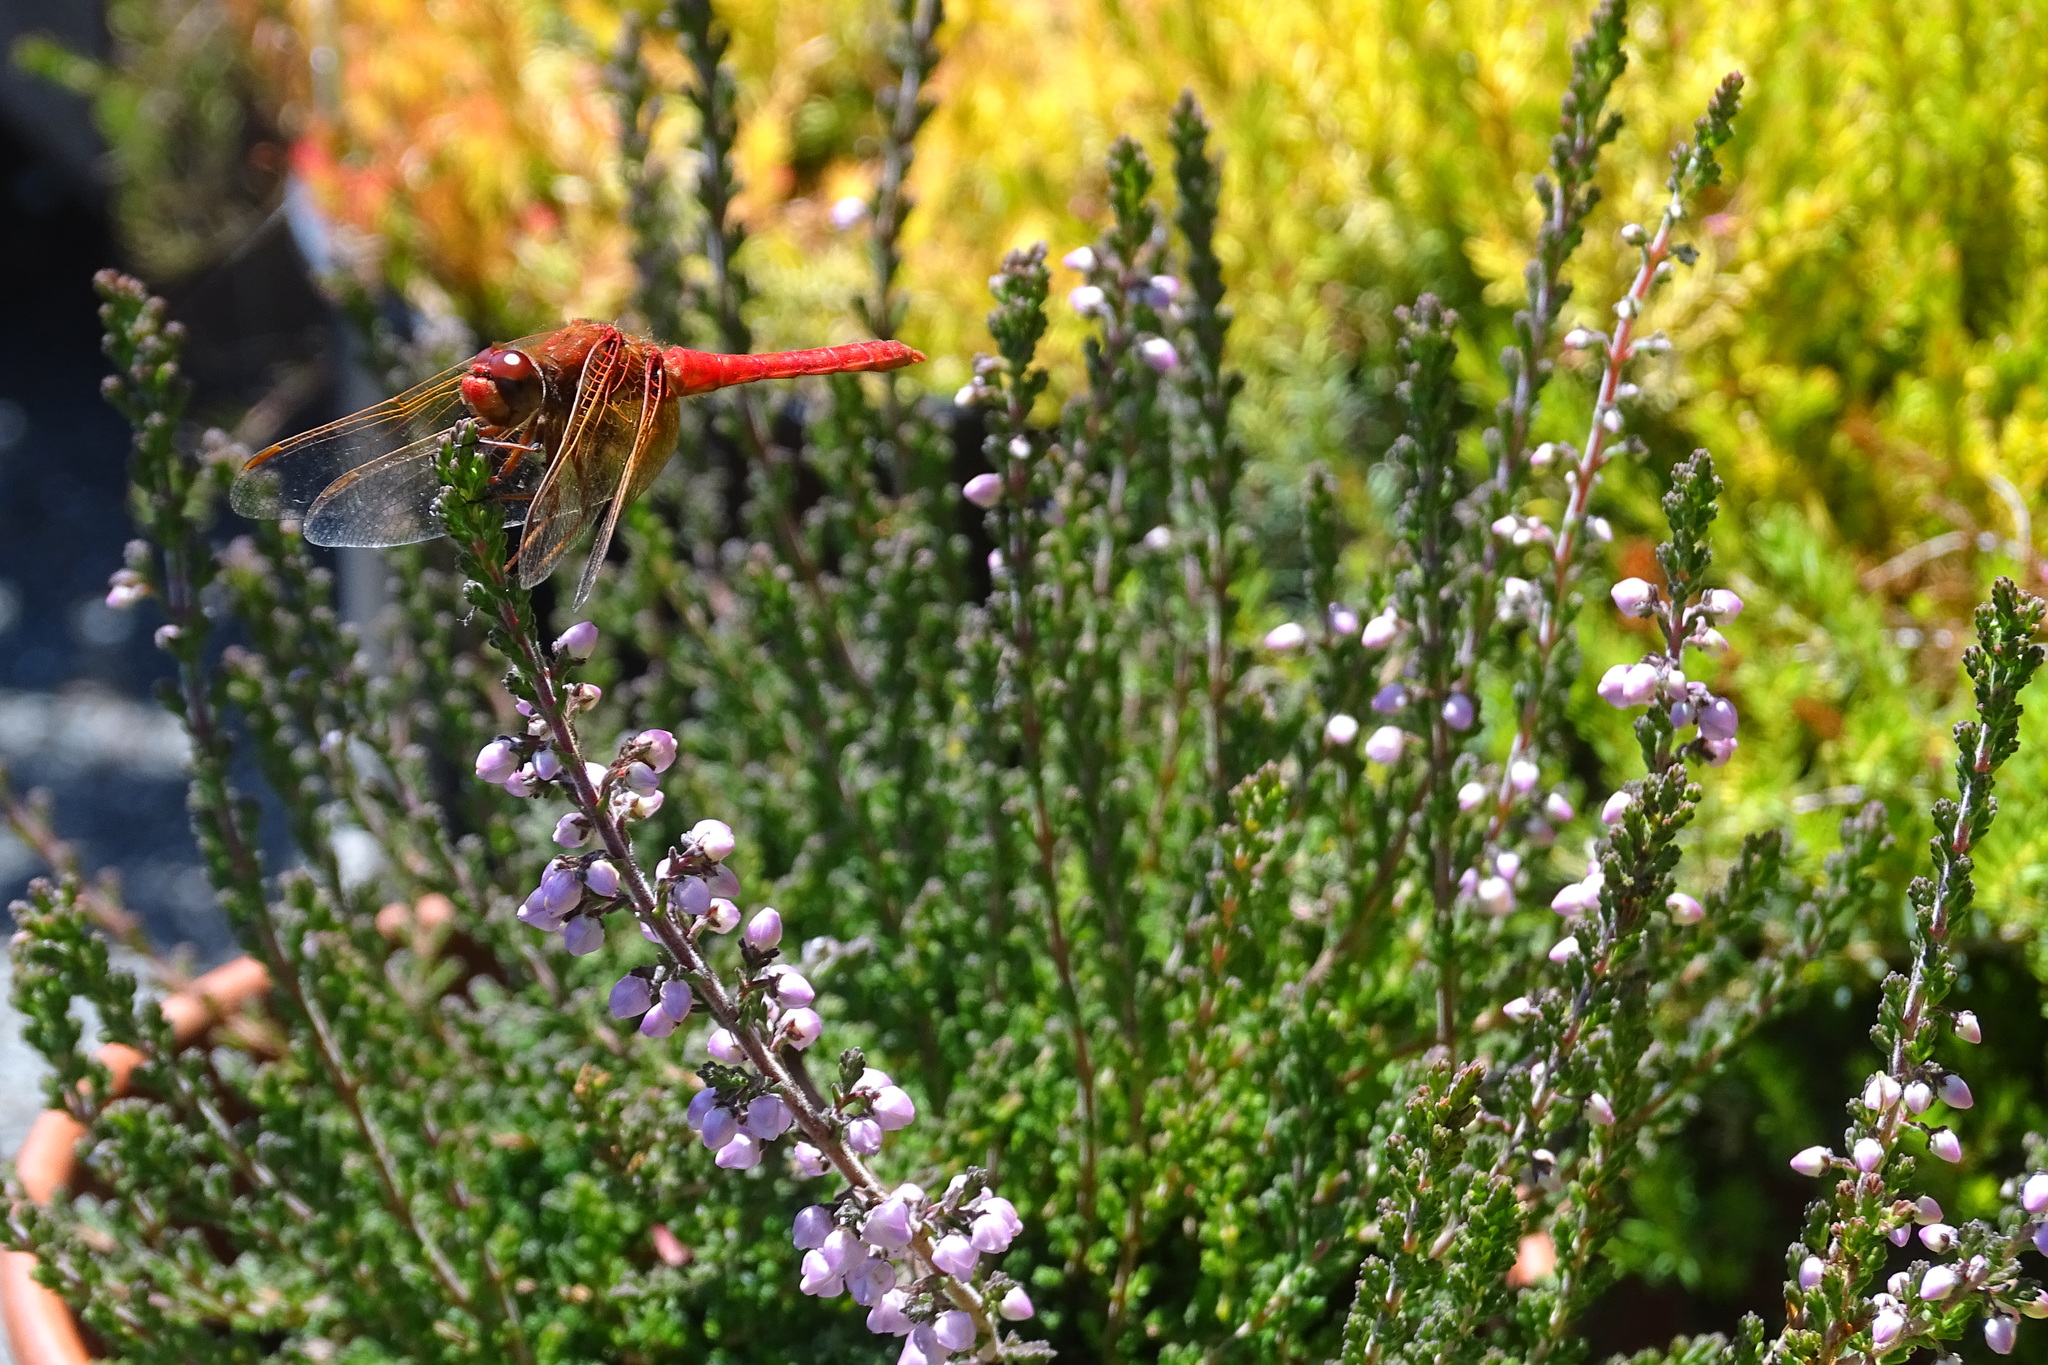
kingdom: Animalia
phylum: Arthropoda
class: Insecta
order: Odonata
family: Libellulidae
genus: Sympetrum
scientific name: Sympetrum illotum
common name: Cardinal meadowhawk
